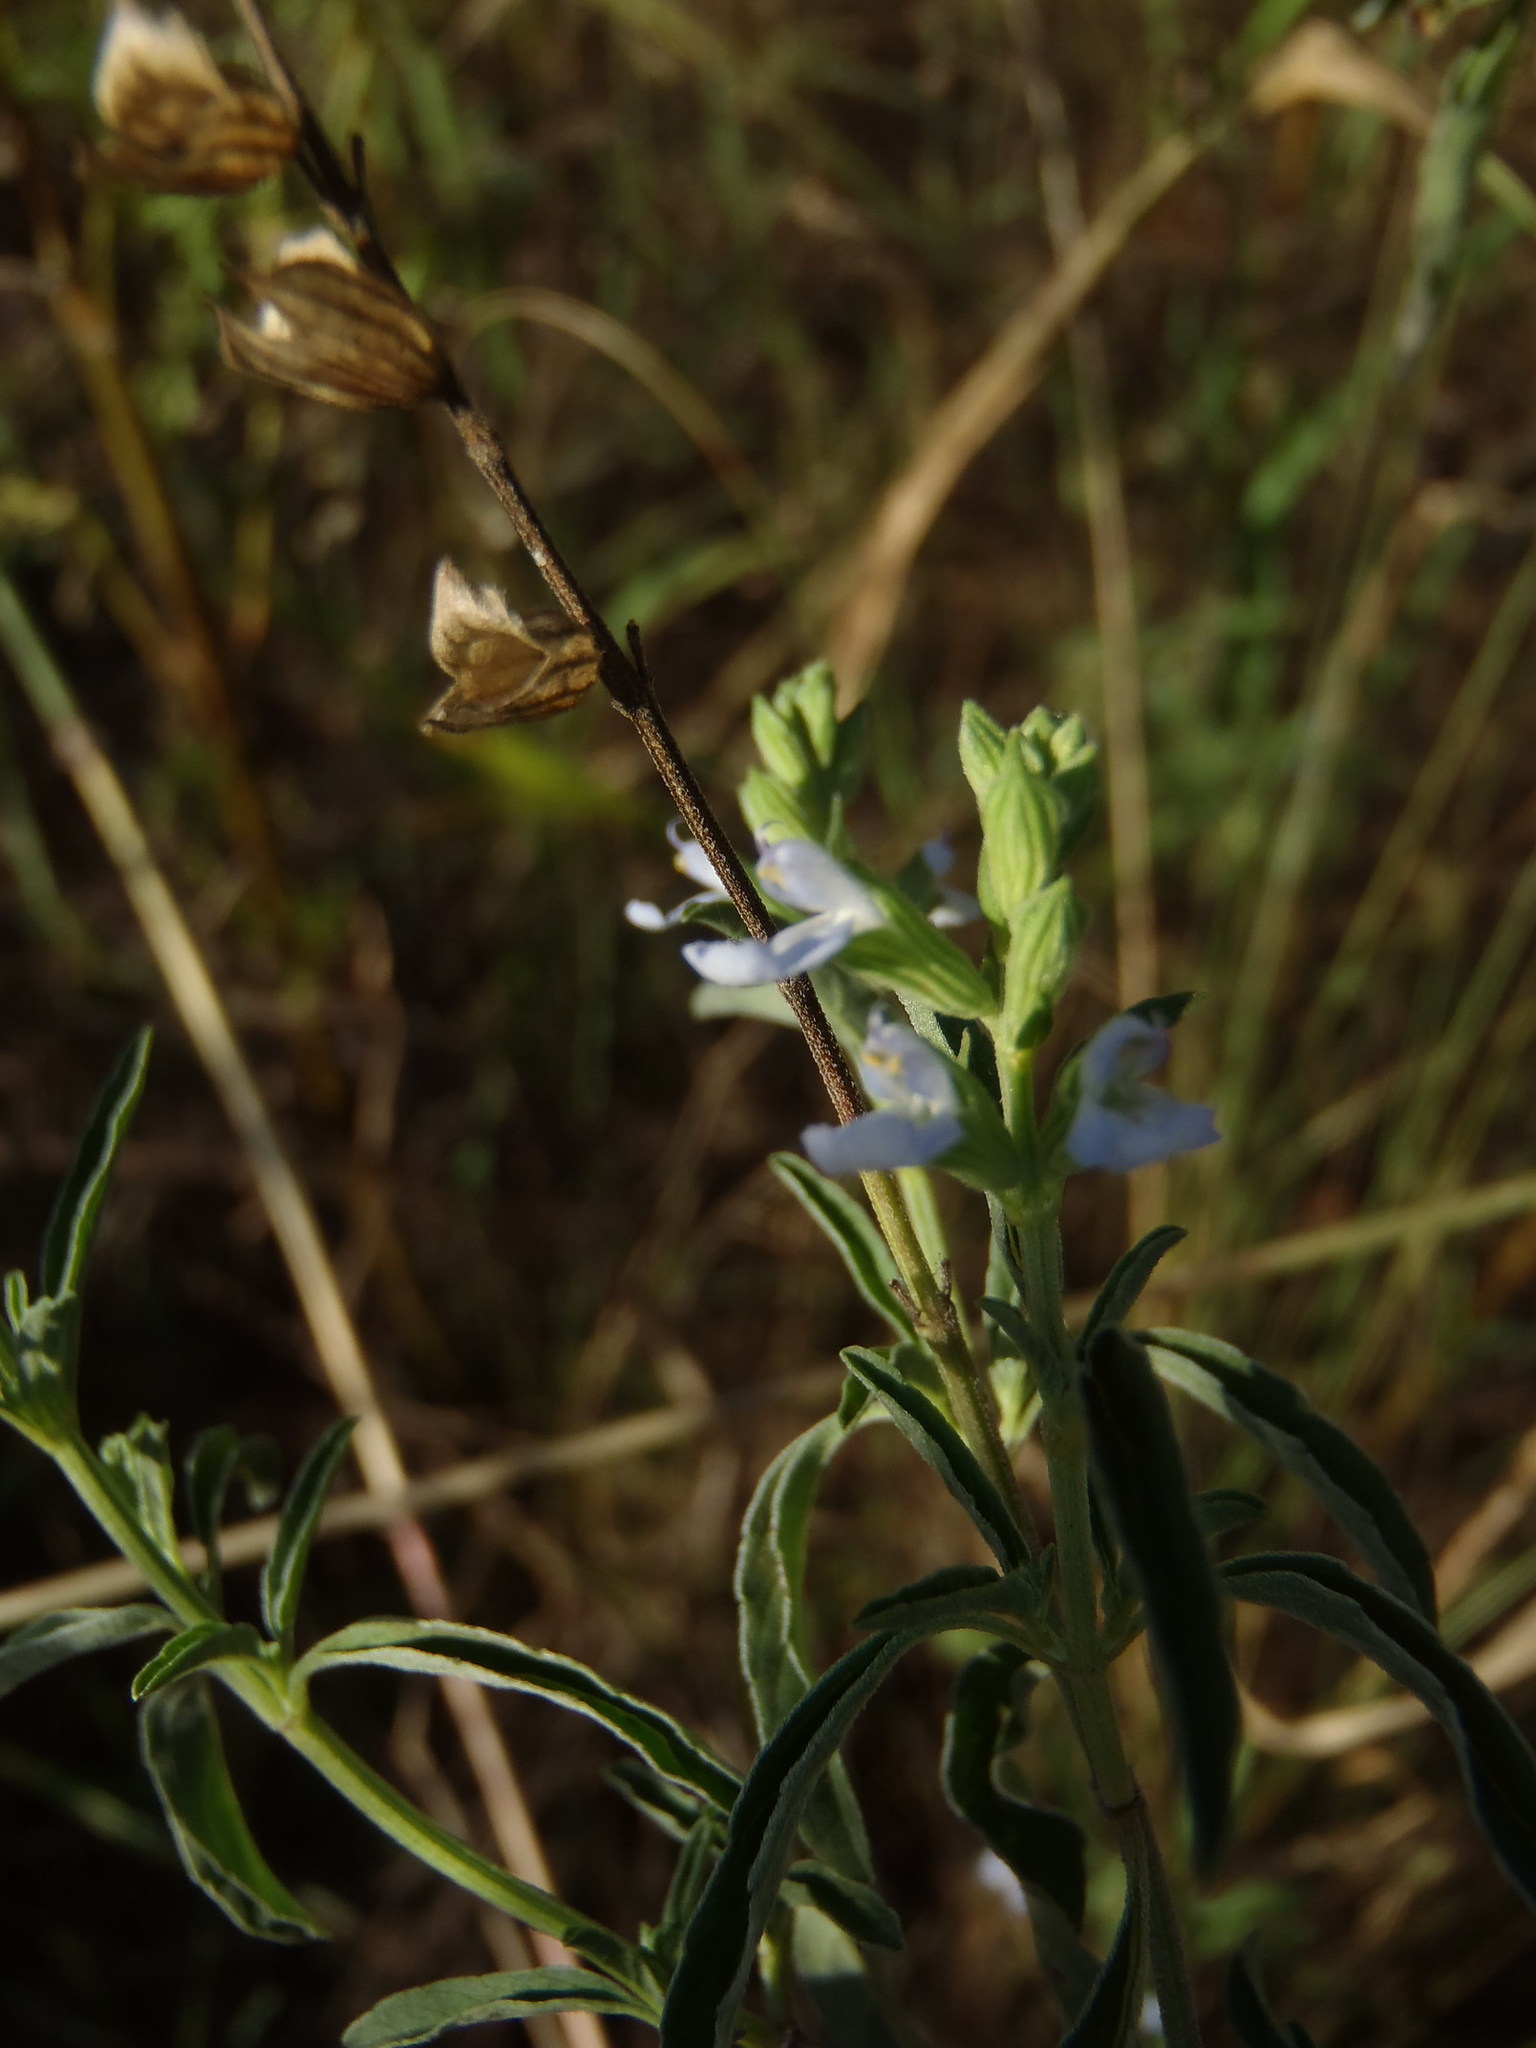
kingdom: Plantae
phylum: Tracheophyta
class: Magnoliopsida
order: Lamiales
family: Lamiaceae
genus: Salvia
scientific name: Salvia reflexa
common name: Mintweed
